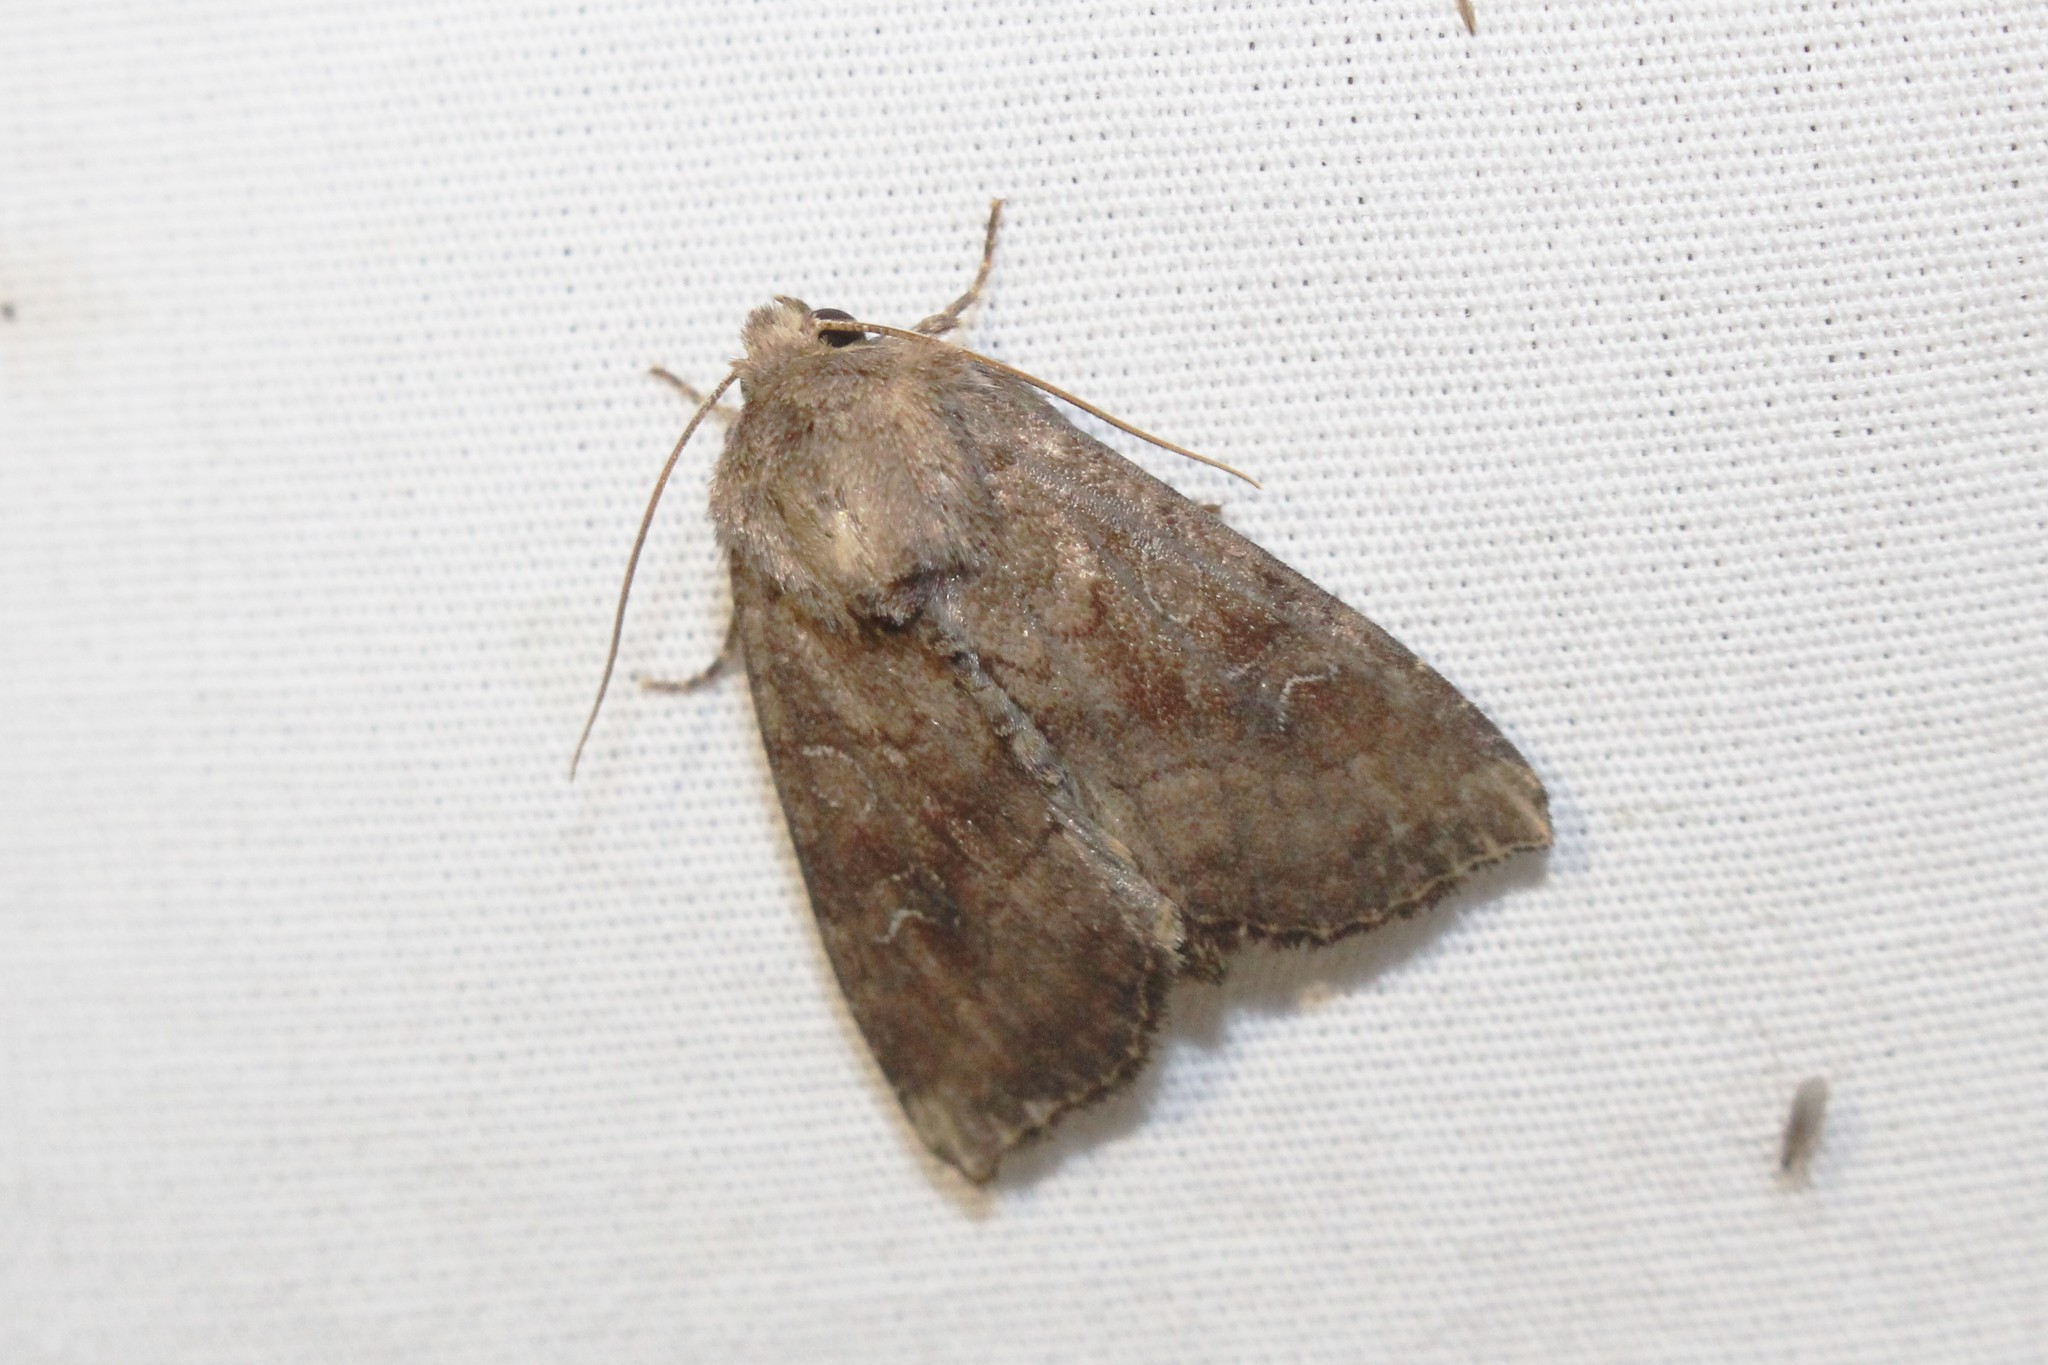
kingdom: Animalia
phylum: Arthropoda
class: Insecta
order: Lepidoptera
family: Noctuidae
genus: Loscopia
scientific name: Loscopia velata
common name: Veiled ear moth
